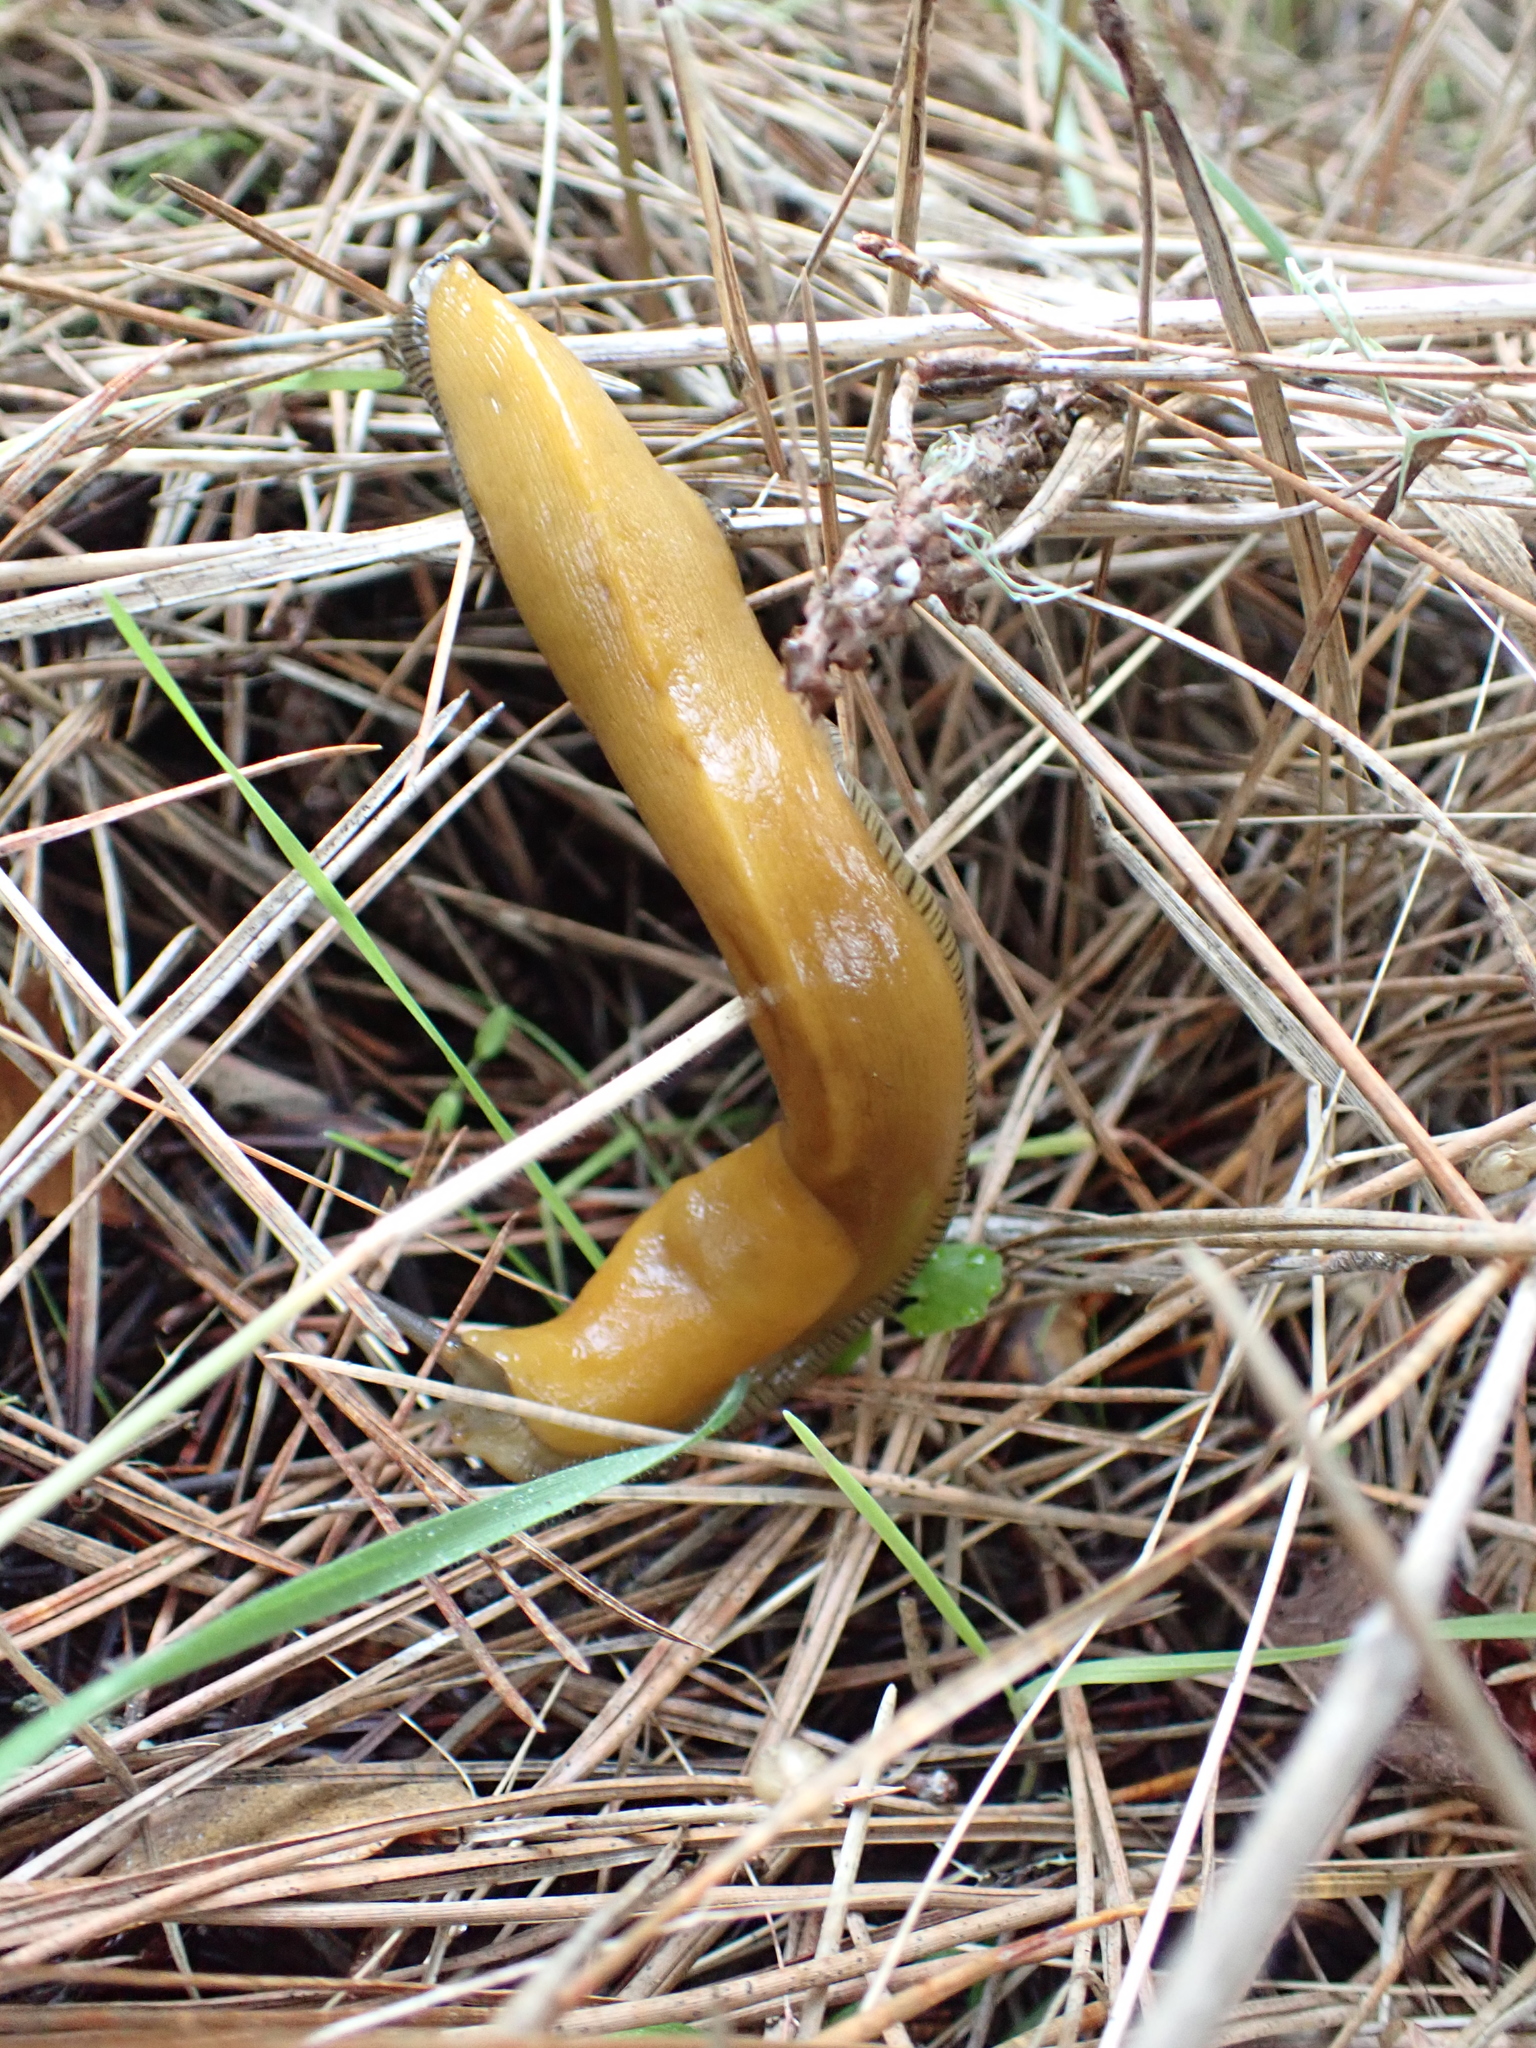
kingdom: Animalia
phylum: Mollusca
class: Gastropoda
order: Stylommatophora
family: Ariolimacidae
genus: Ariolimax
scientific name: Ariolimax californicus
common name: California banana slug
